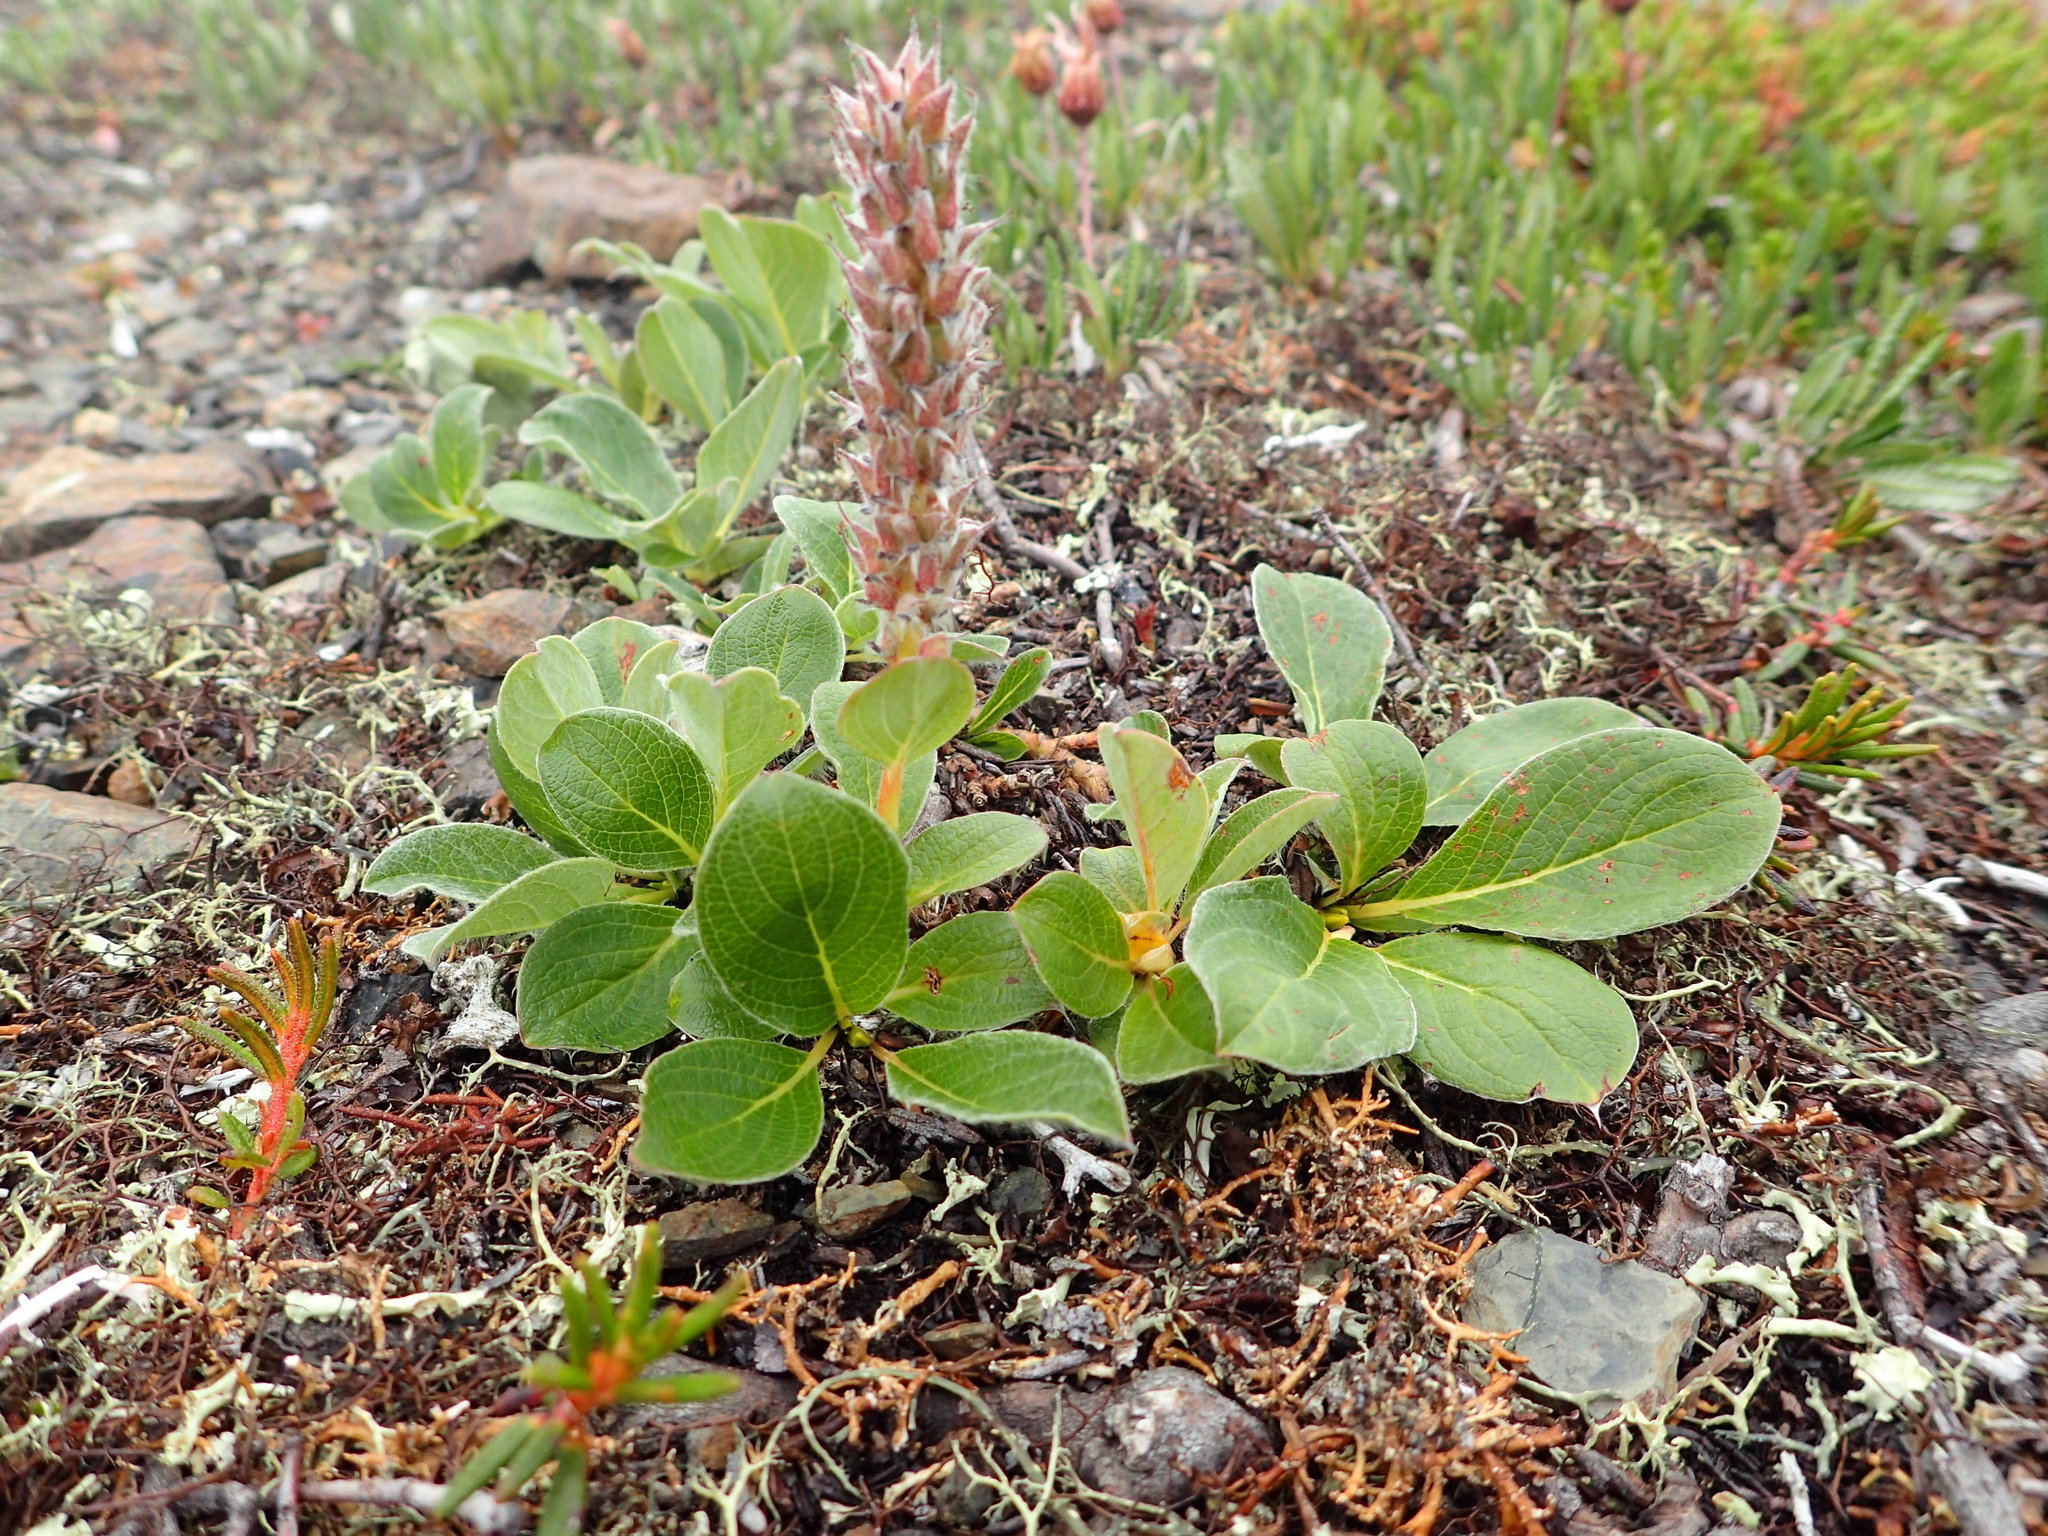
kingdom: Plantae
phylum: Tracheophyta
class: Magnoliopsida
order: Malpighiales
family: Salicaceae
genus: Salix
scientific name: Salix arctica
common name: Arctic willow
